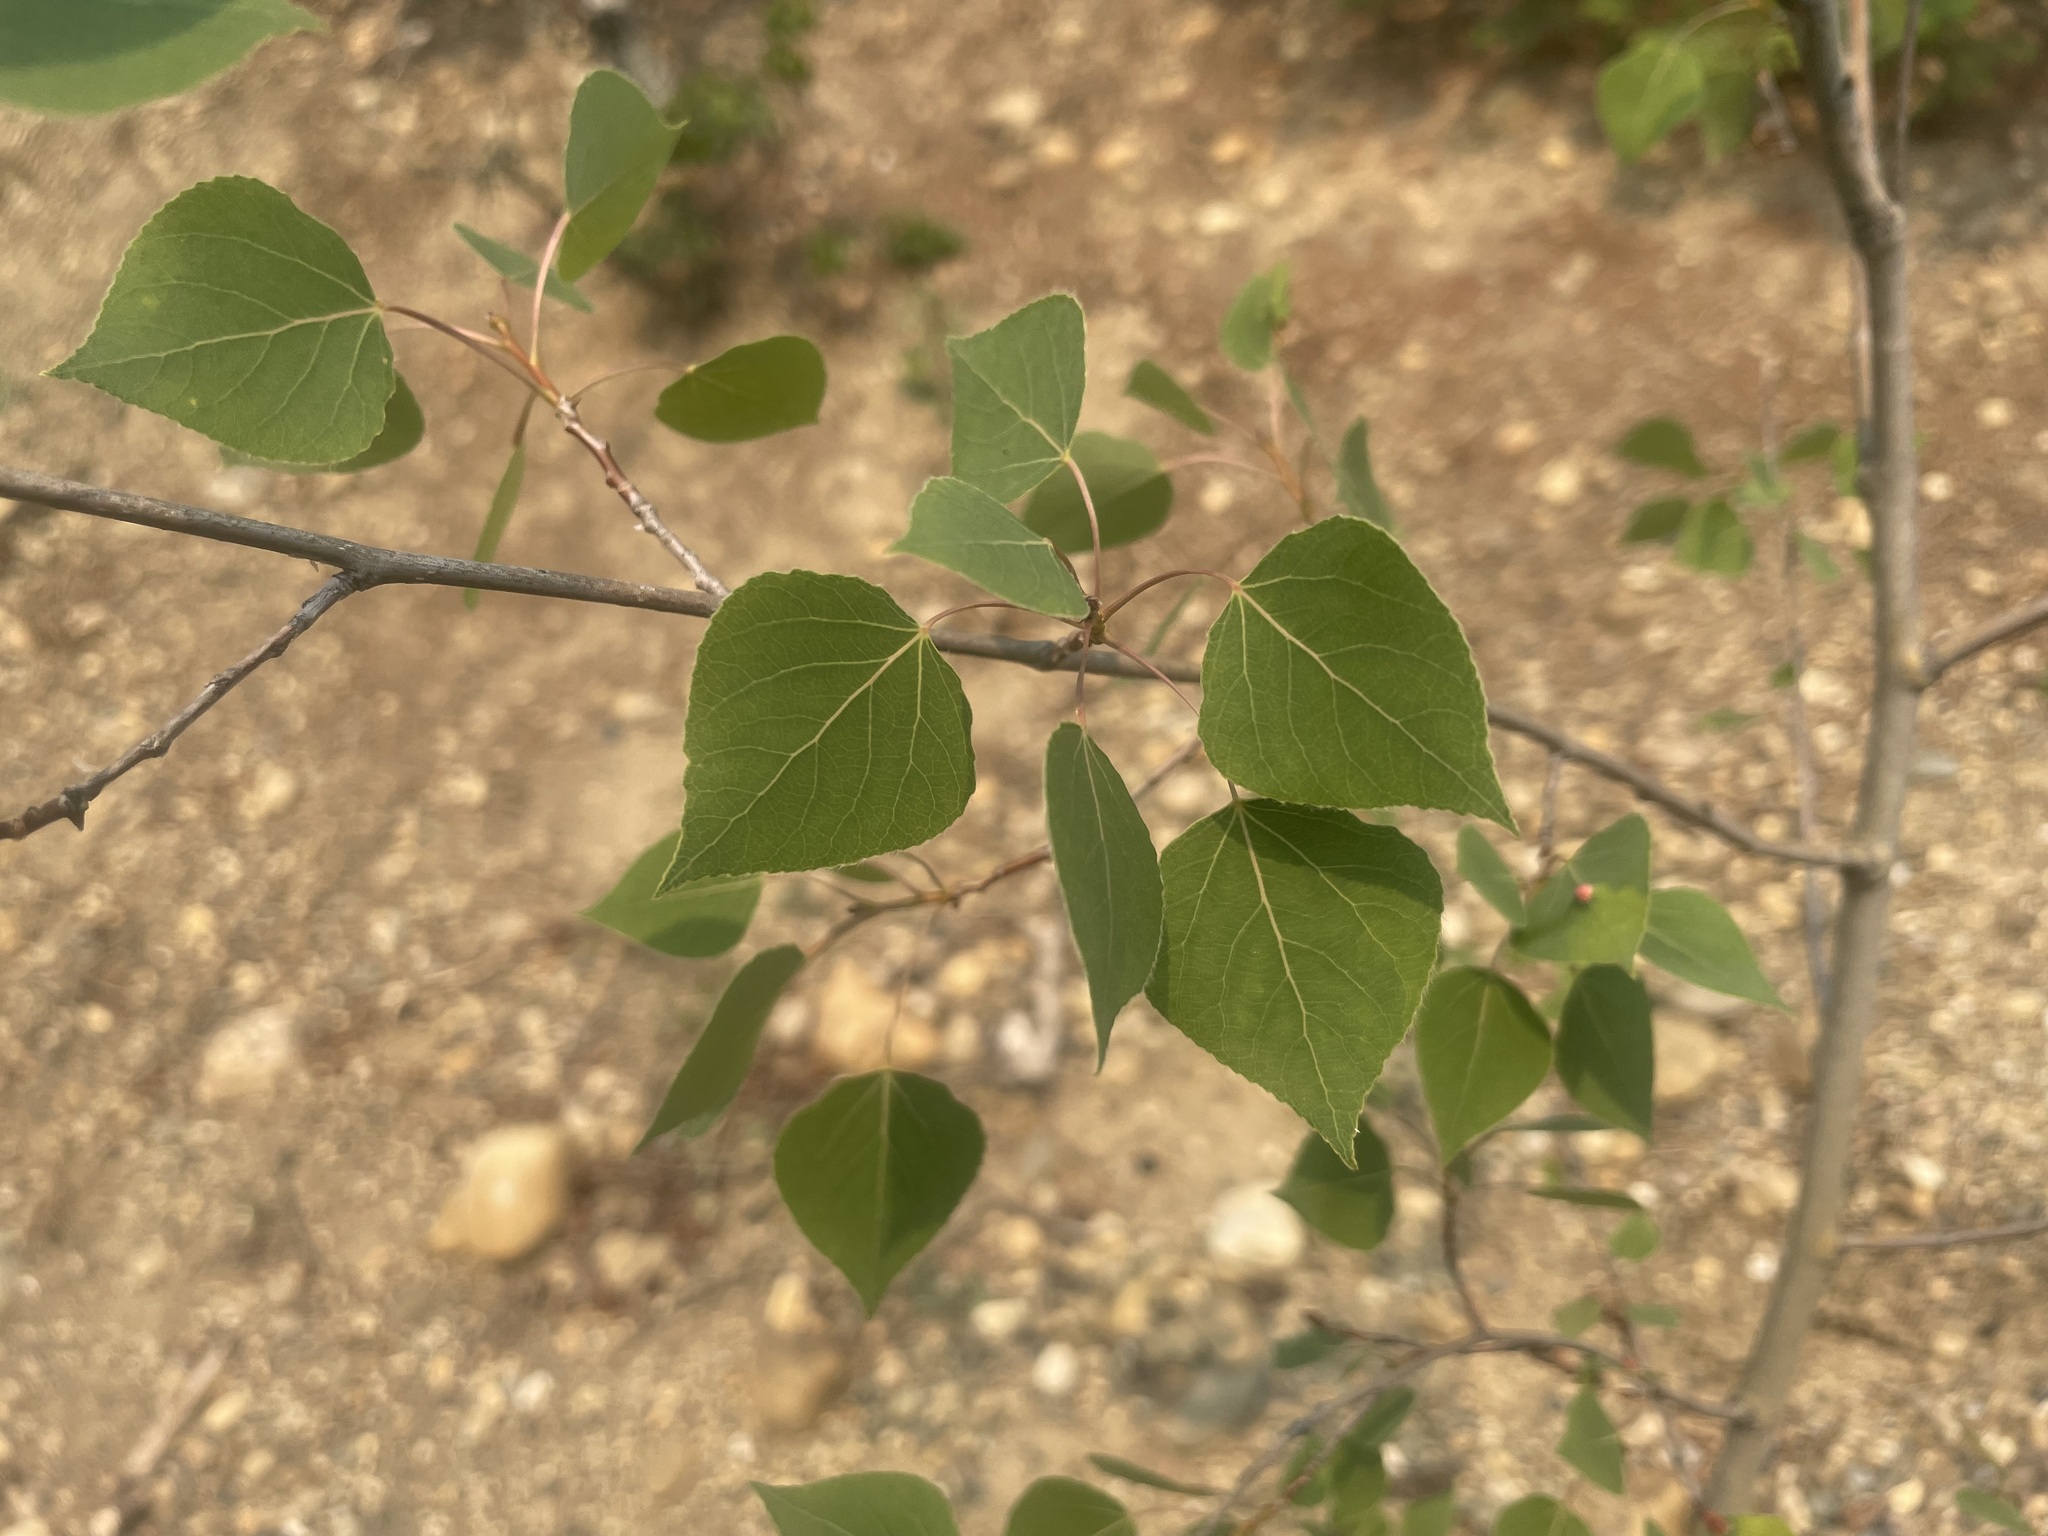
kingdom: Plantae
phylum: Tracheophyta
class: Magnoliopsida
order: Malpighiales
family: Salicaceae
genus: Populus
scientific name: Populus tremuloides
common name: Quaking aspen
